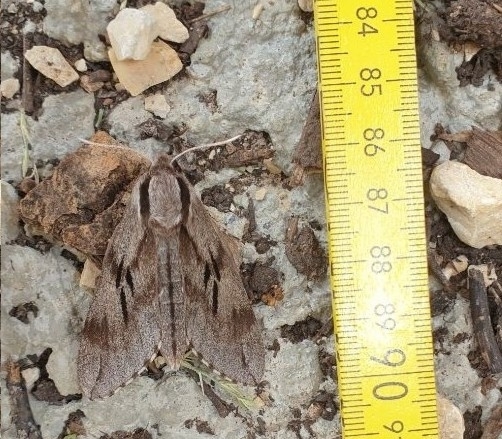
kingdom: Animalia
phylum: Arthropoda
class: Insecta
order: Lepidoptera
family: Sphingidae
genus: Sphinx
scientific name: Sphinx pinastri
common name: Pine hawk-moth
